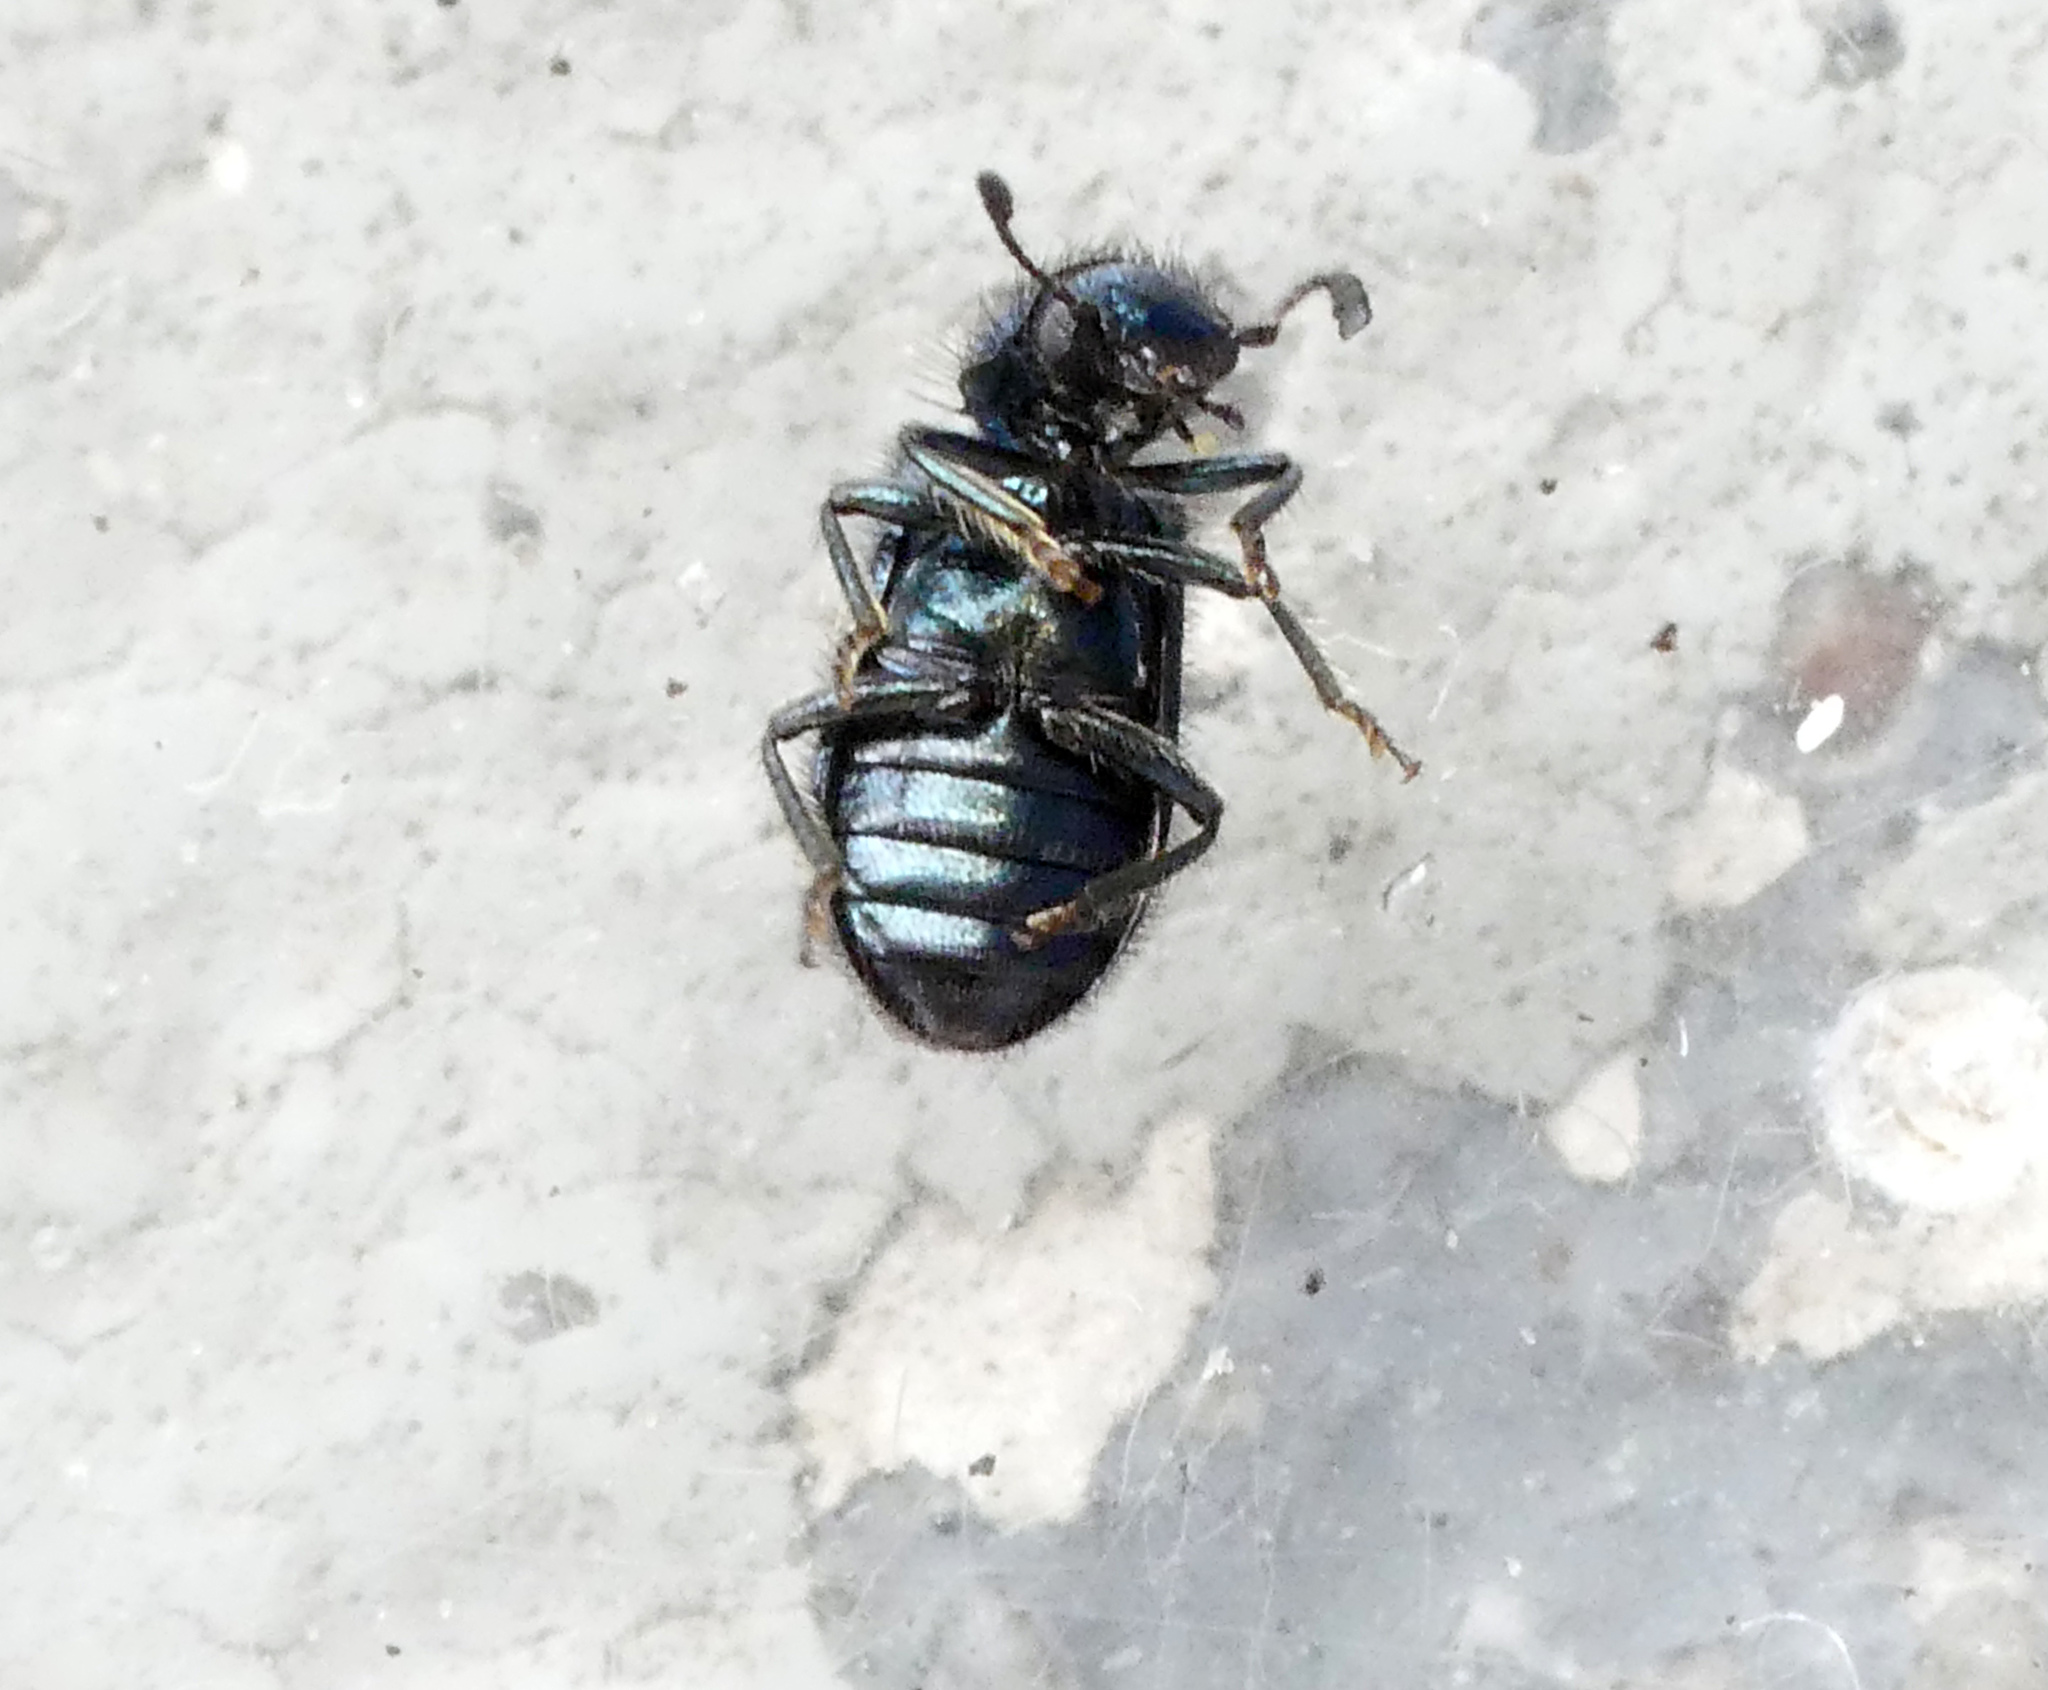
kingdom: Animalia
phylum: Arthropoda
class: Insecta
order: Coleoptera
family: Cleridae
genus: Korynetes
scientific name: Korynetes caeruleus
